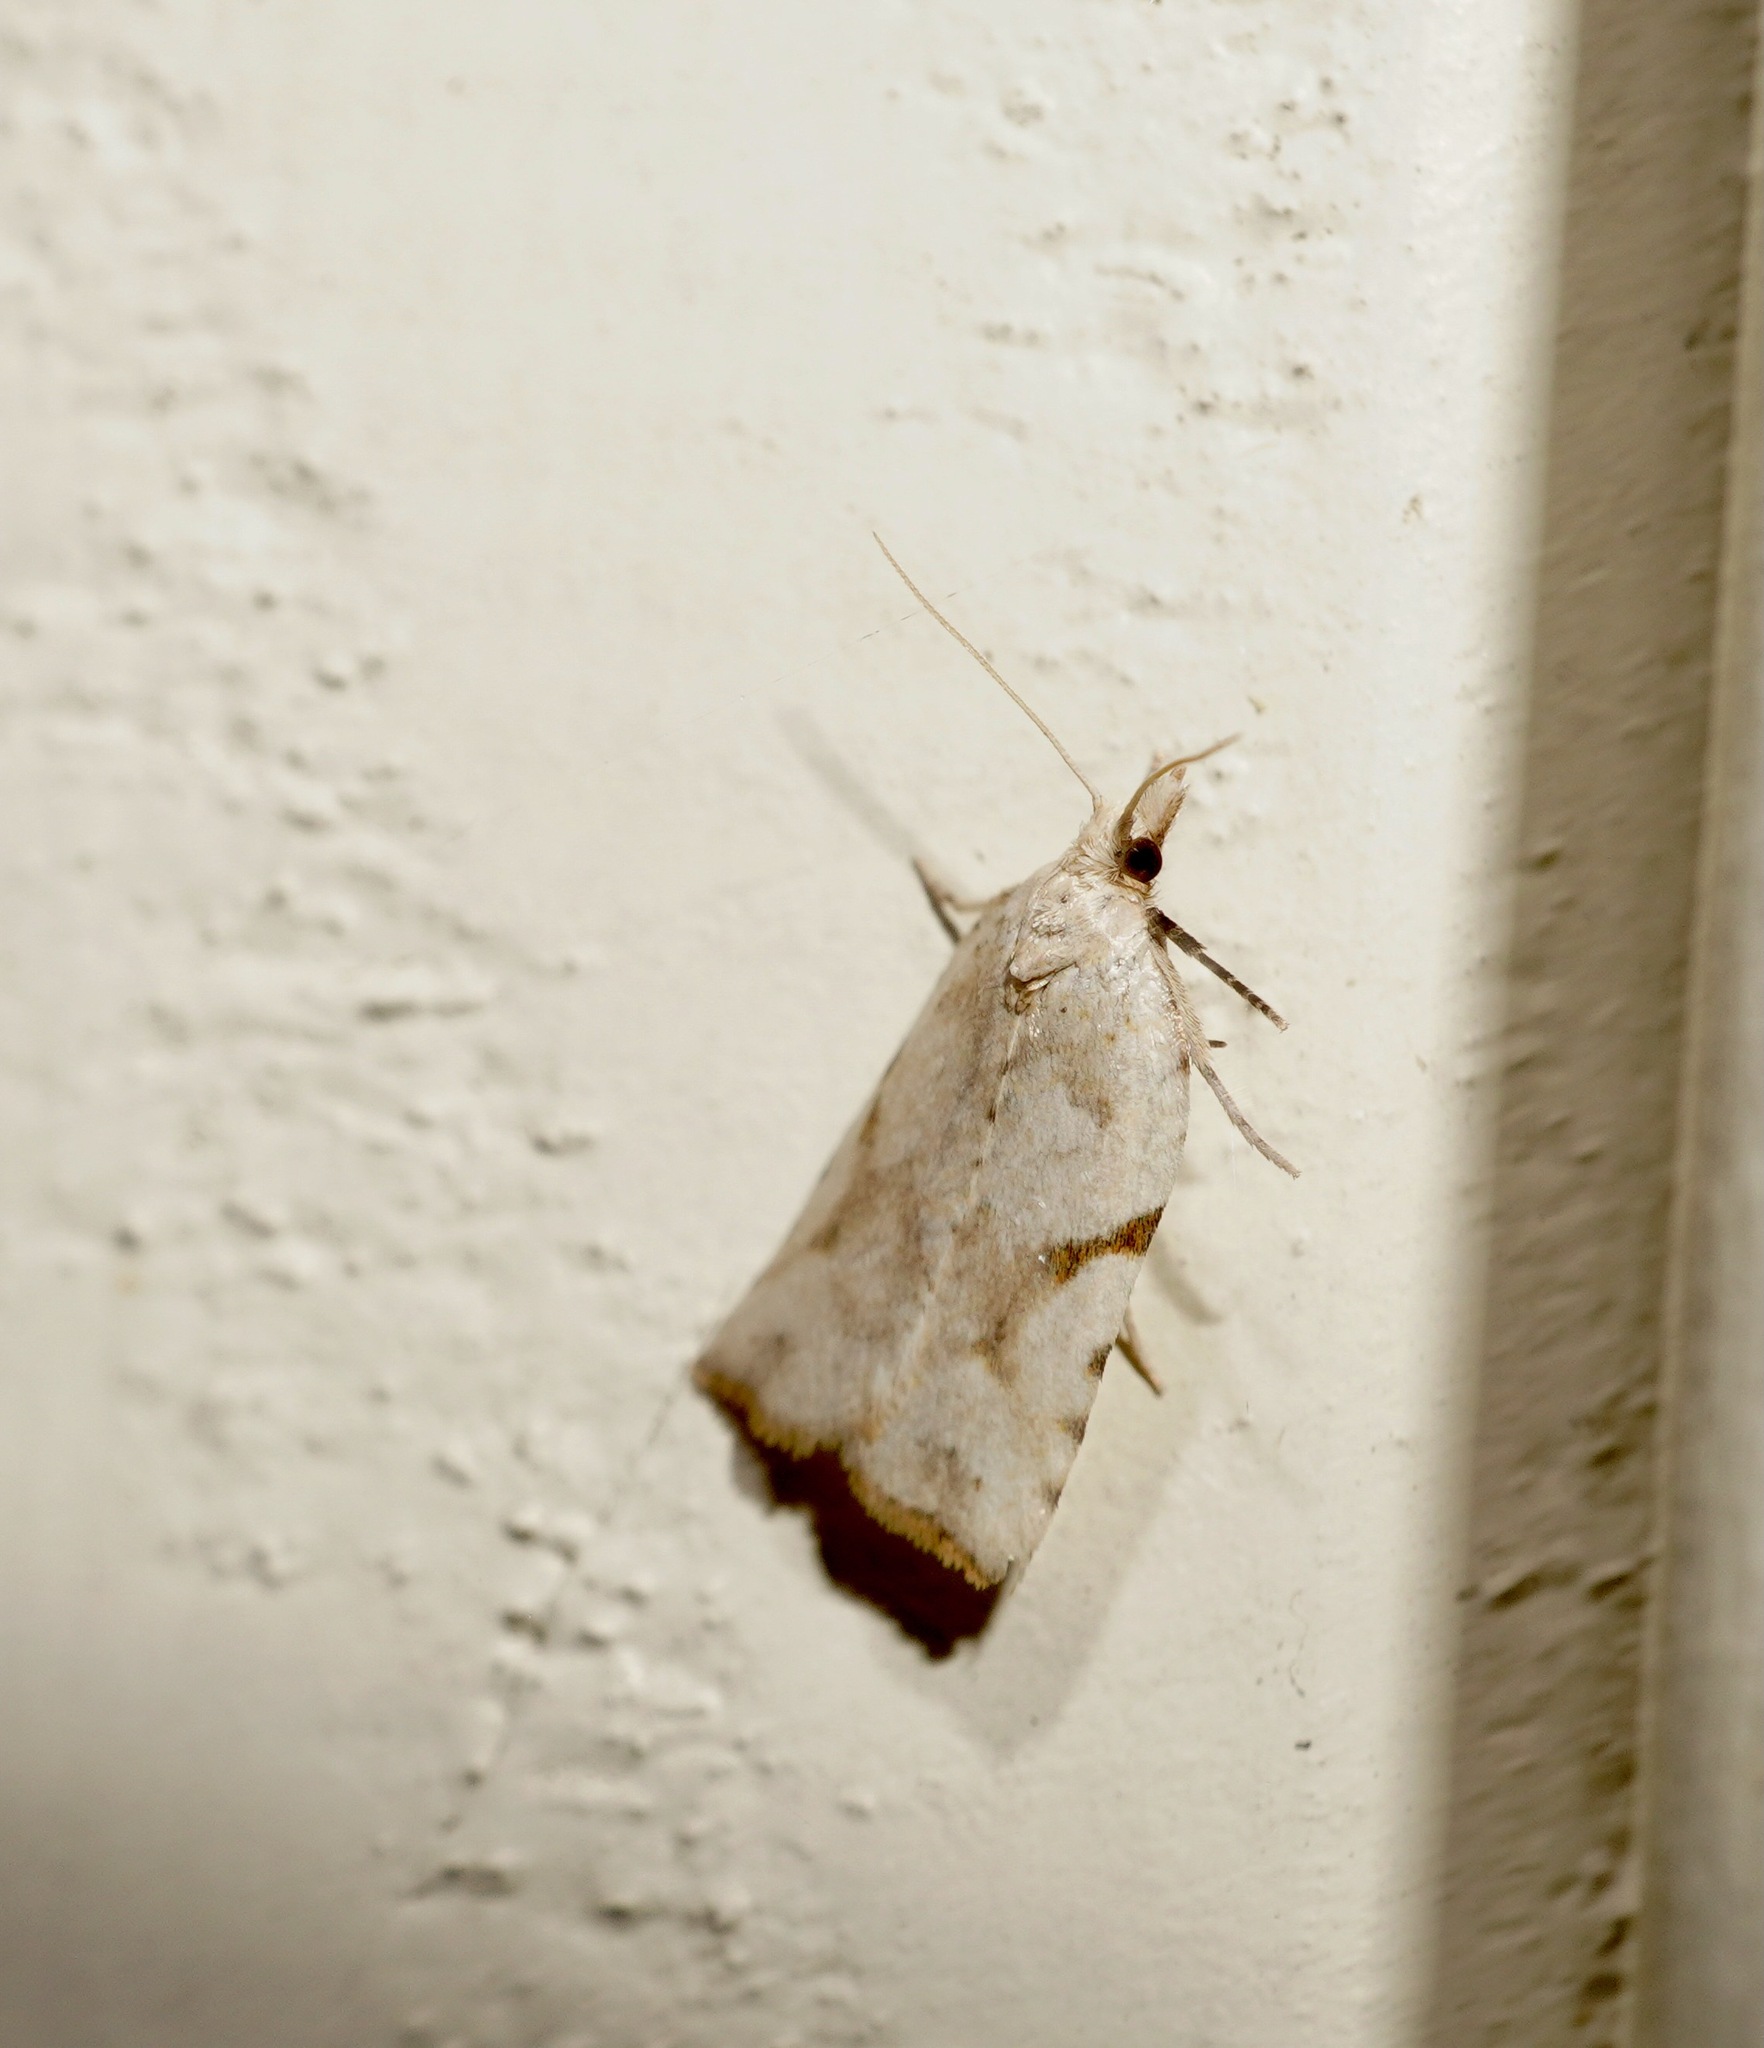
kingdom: Animalia
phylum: Arthropoda
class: Insecta
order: Lepidoptera
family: Tortricidae
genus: Leucotenes
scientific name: Leucotenes coprosmae
